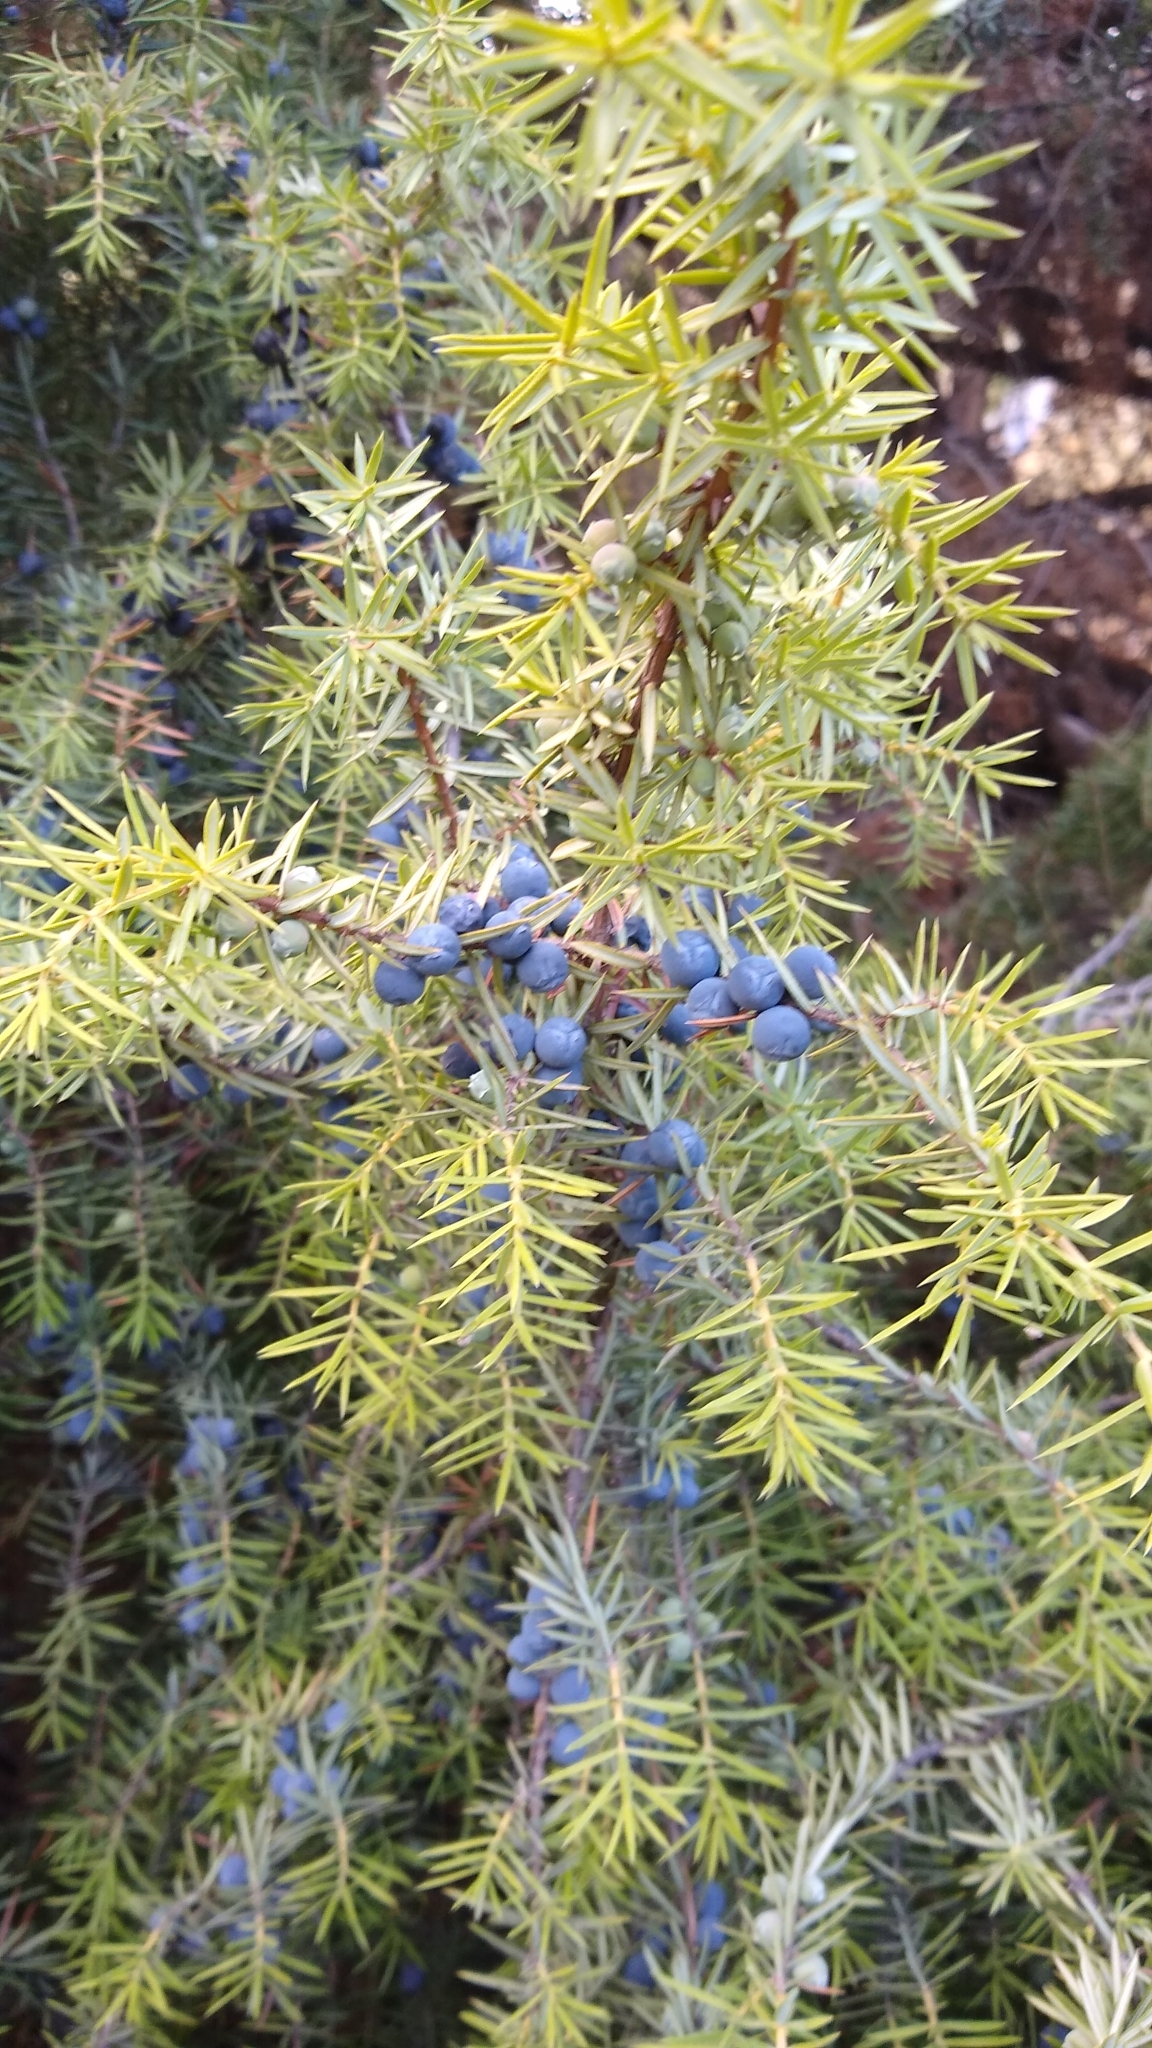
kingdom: Plantae
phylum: Tracheophyta
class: Pinopsida
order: Pinales
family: Cupressaceae
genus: Juniperus
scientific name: Juniperus communis
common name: Common juniper
